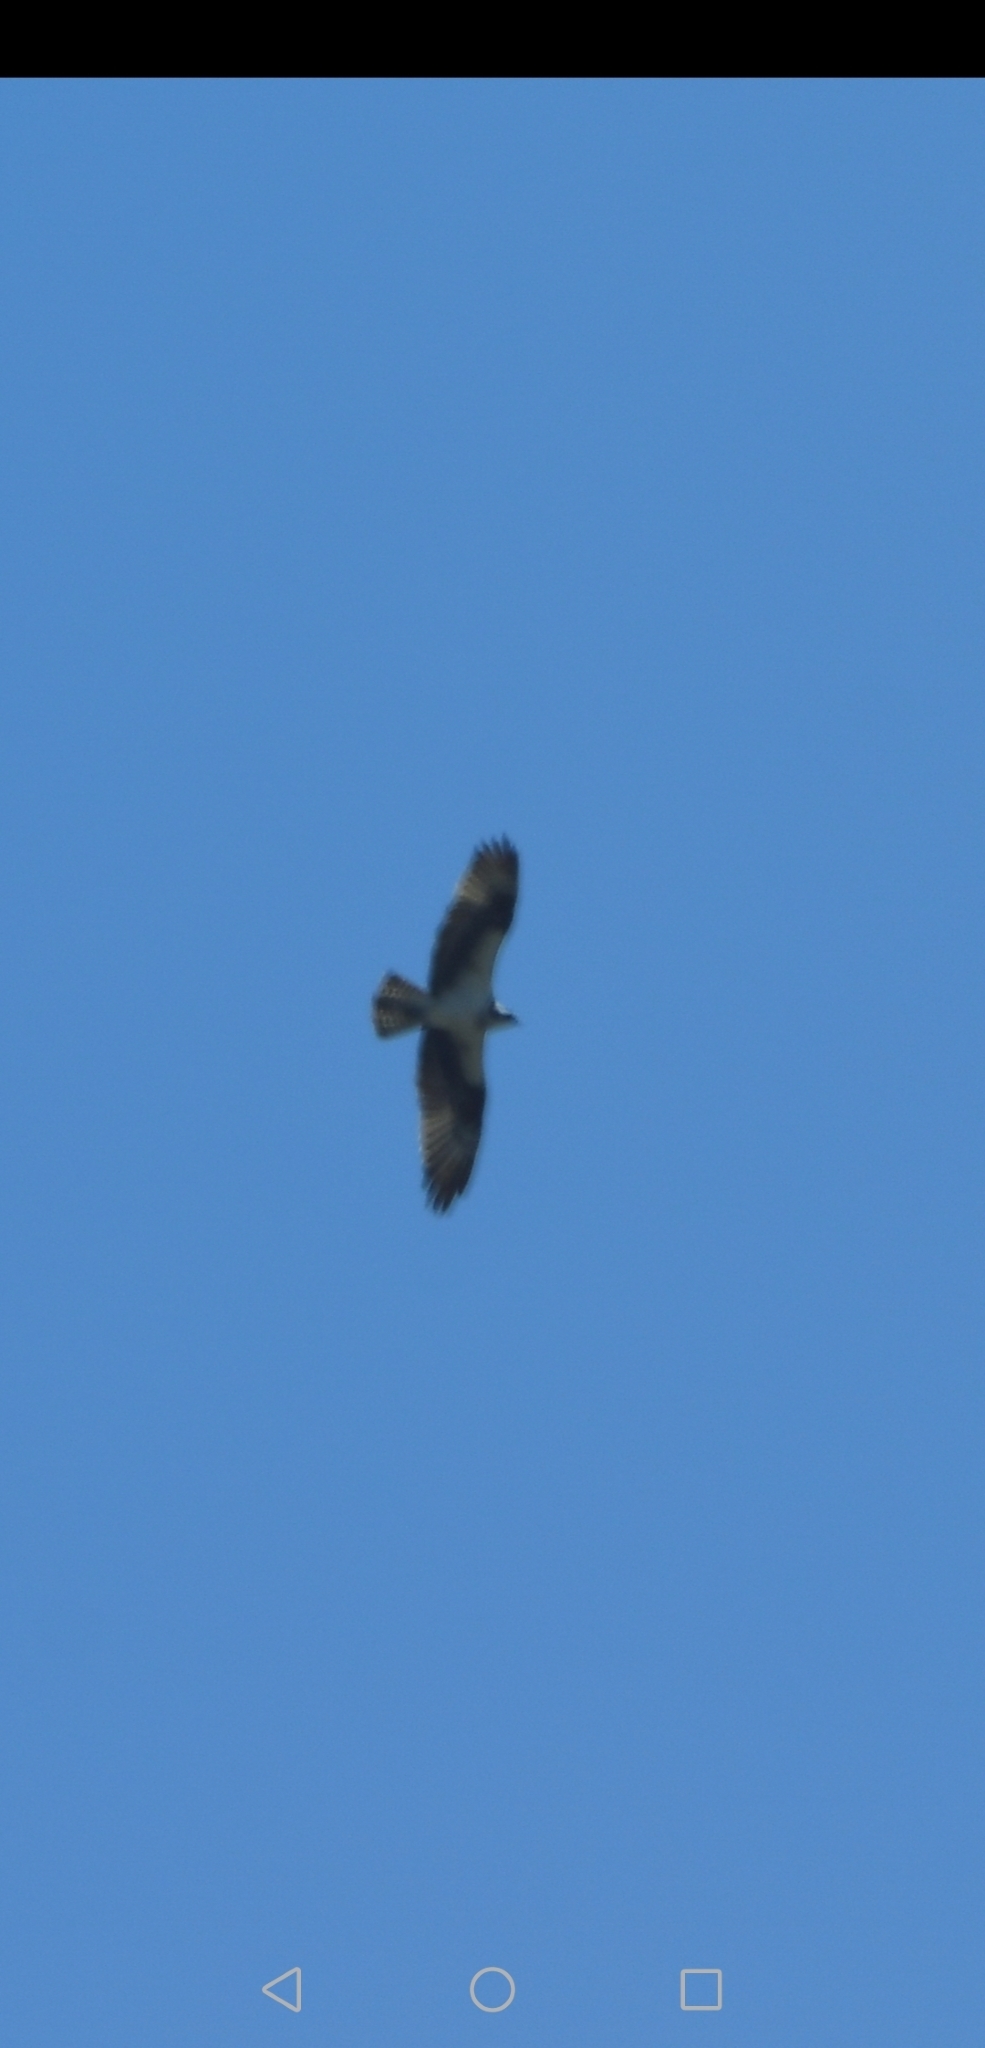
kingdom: Animalia
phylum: Chordata
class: Aves
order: Accipitriformes
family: Pandionidae
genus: Pandion
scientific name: Pandion haliaetus
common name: Osprey
